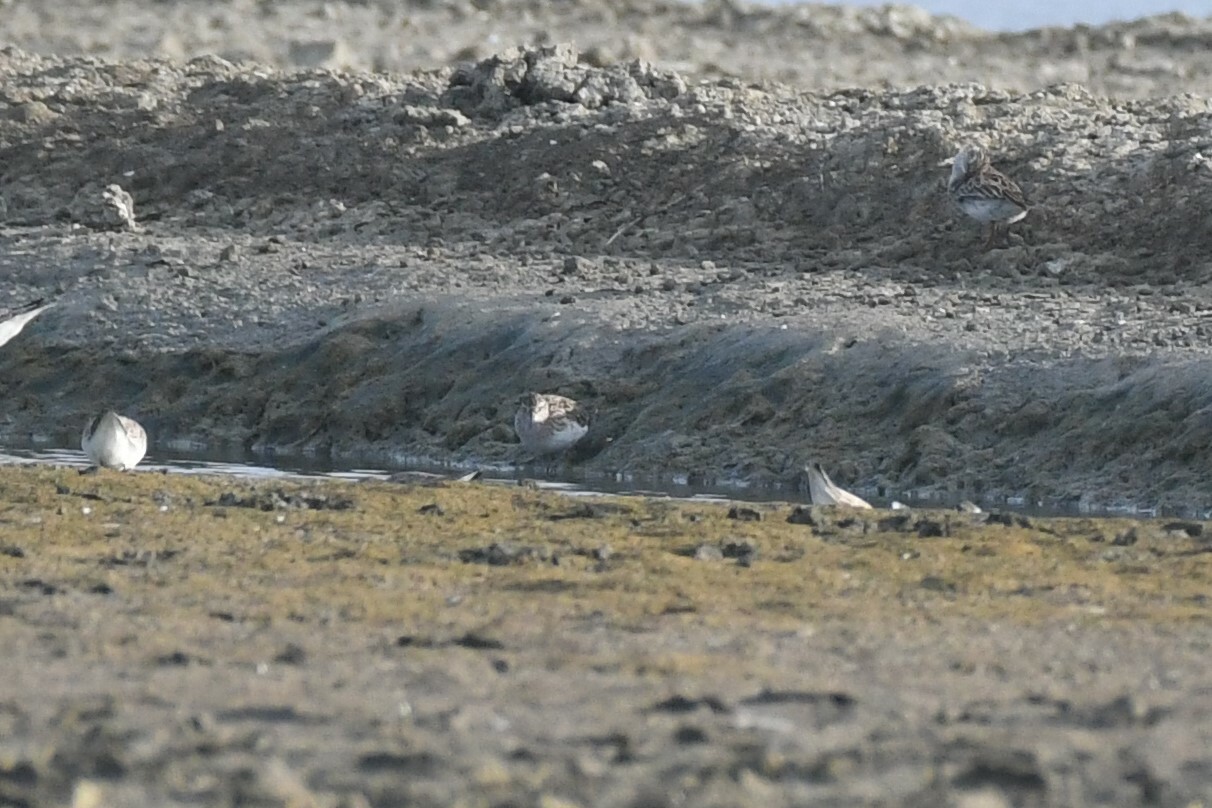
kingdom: Animalia
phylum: Chordata
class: Aves
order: Charadriiformes
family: Scolopacidae
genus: Calidris
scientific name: Calidris subminuta
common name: Long-toed stint
